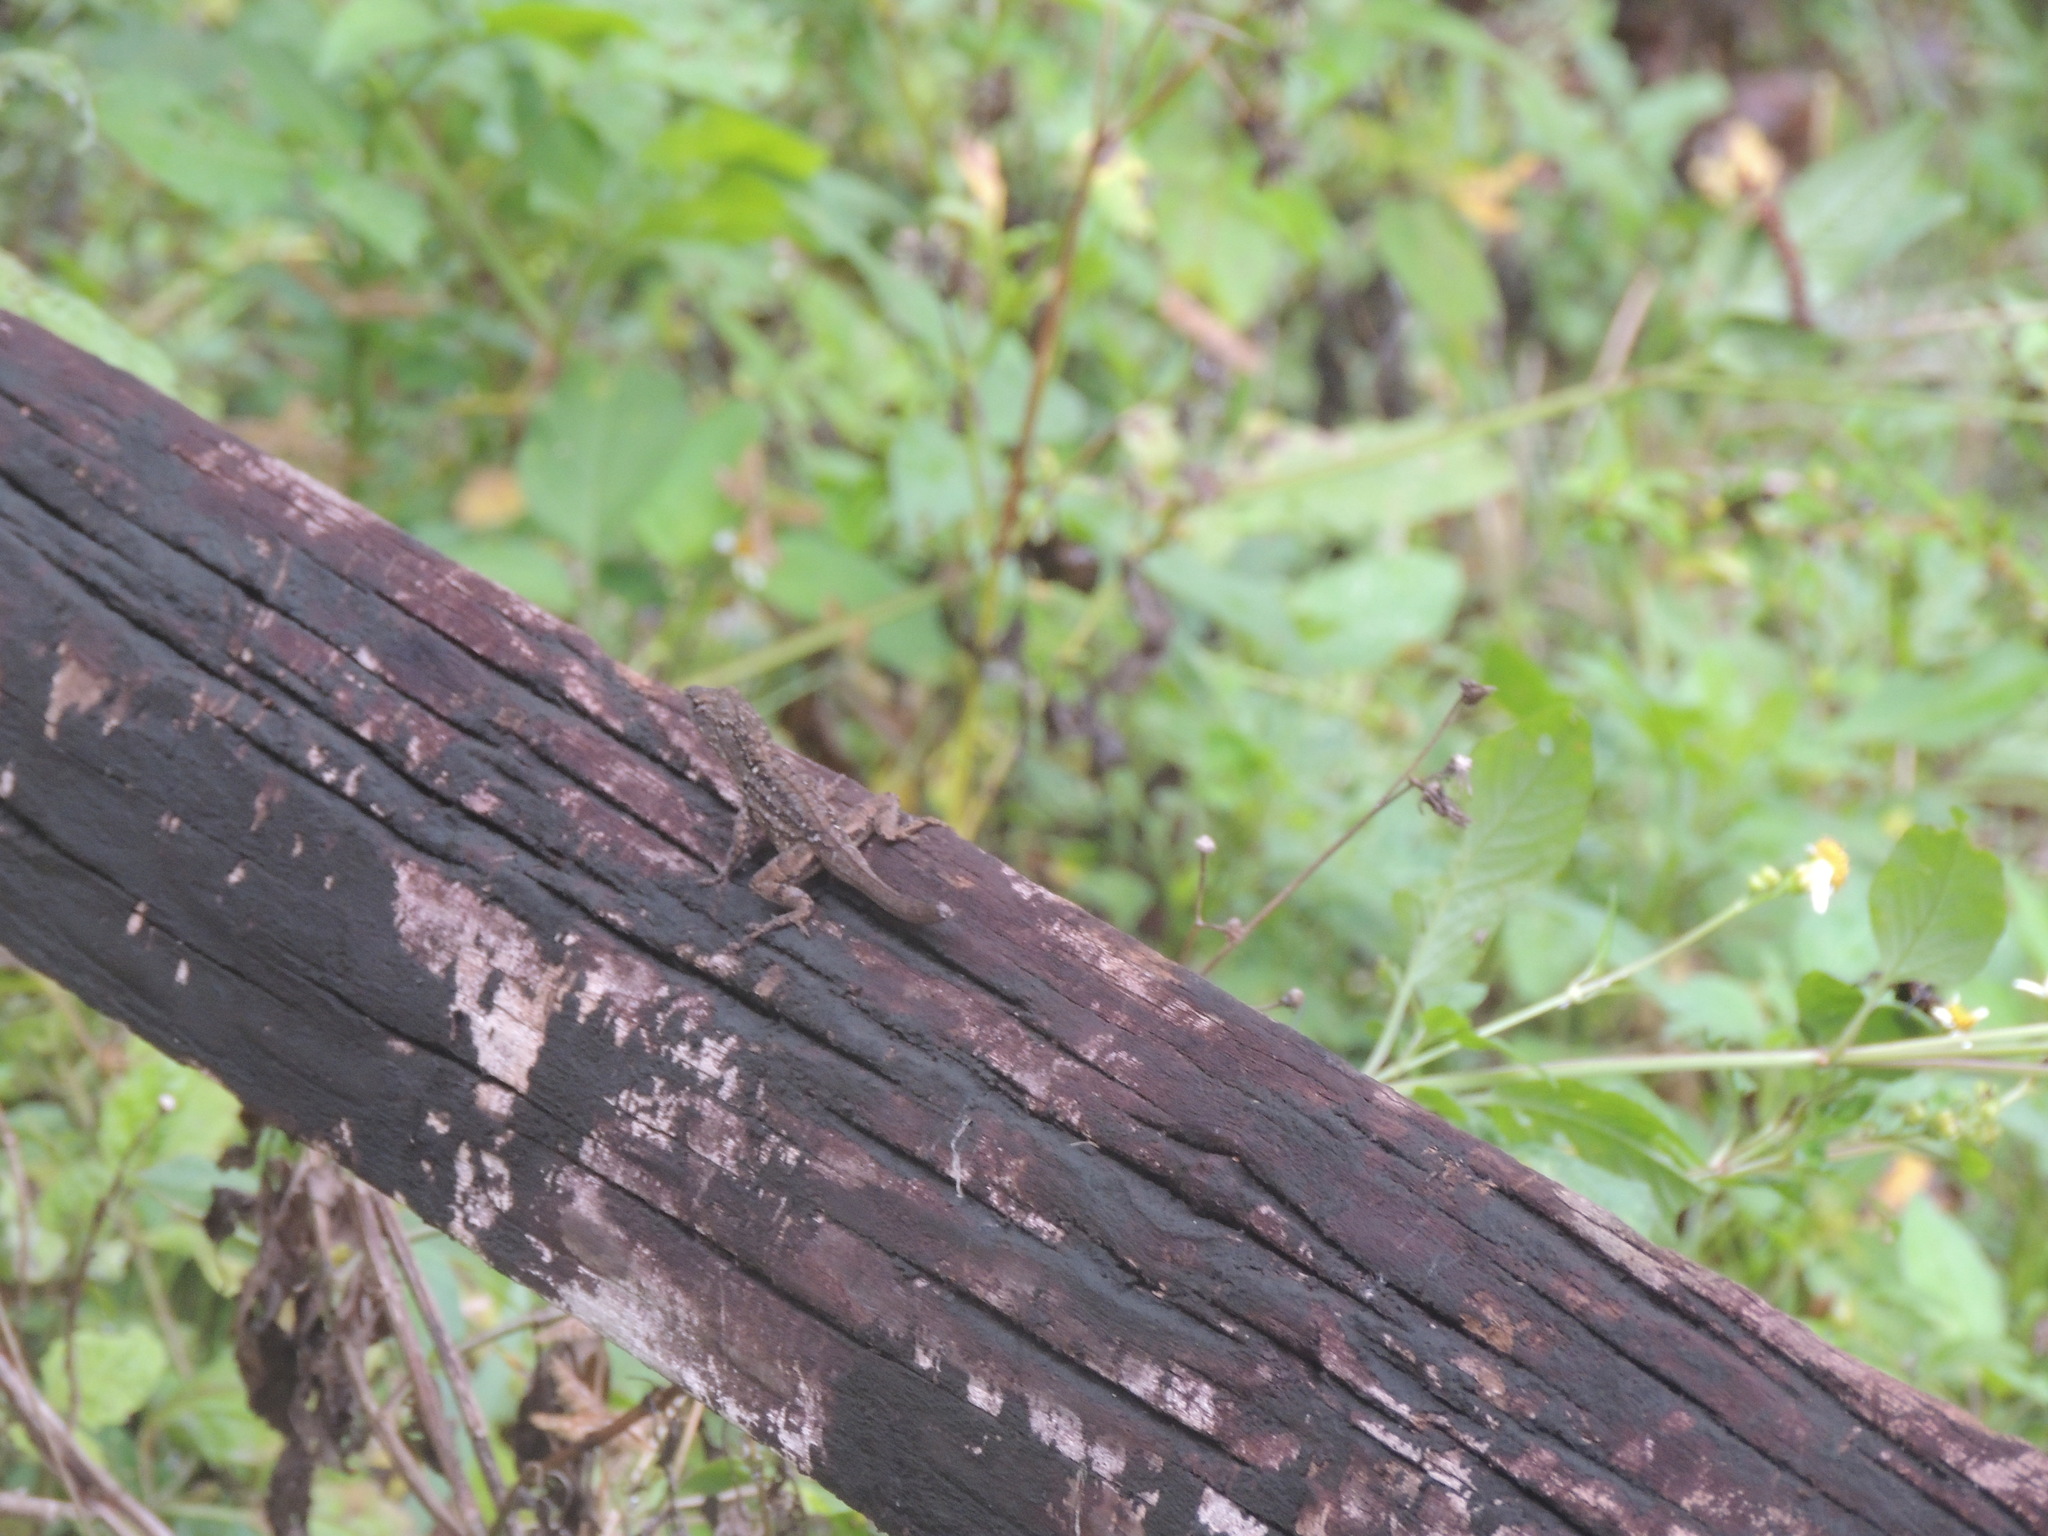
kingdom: Animalia
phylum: Chordata
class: Squamata
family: Dactyloidae
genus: Anolis
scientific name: Anolis sagrei
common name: Brown anole
